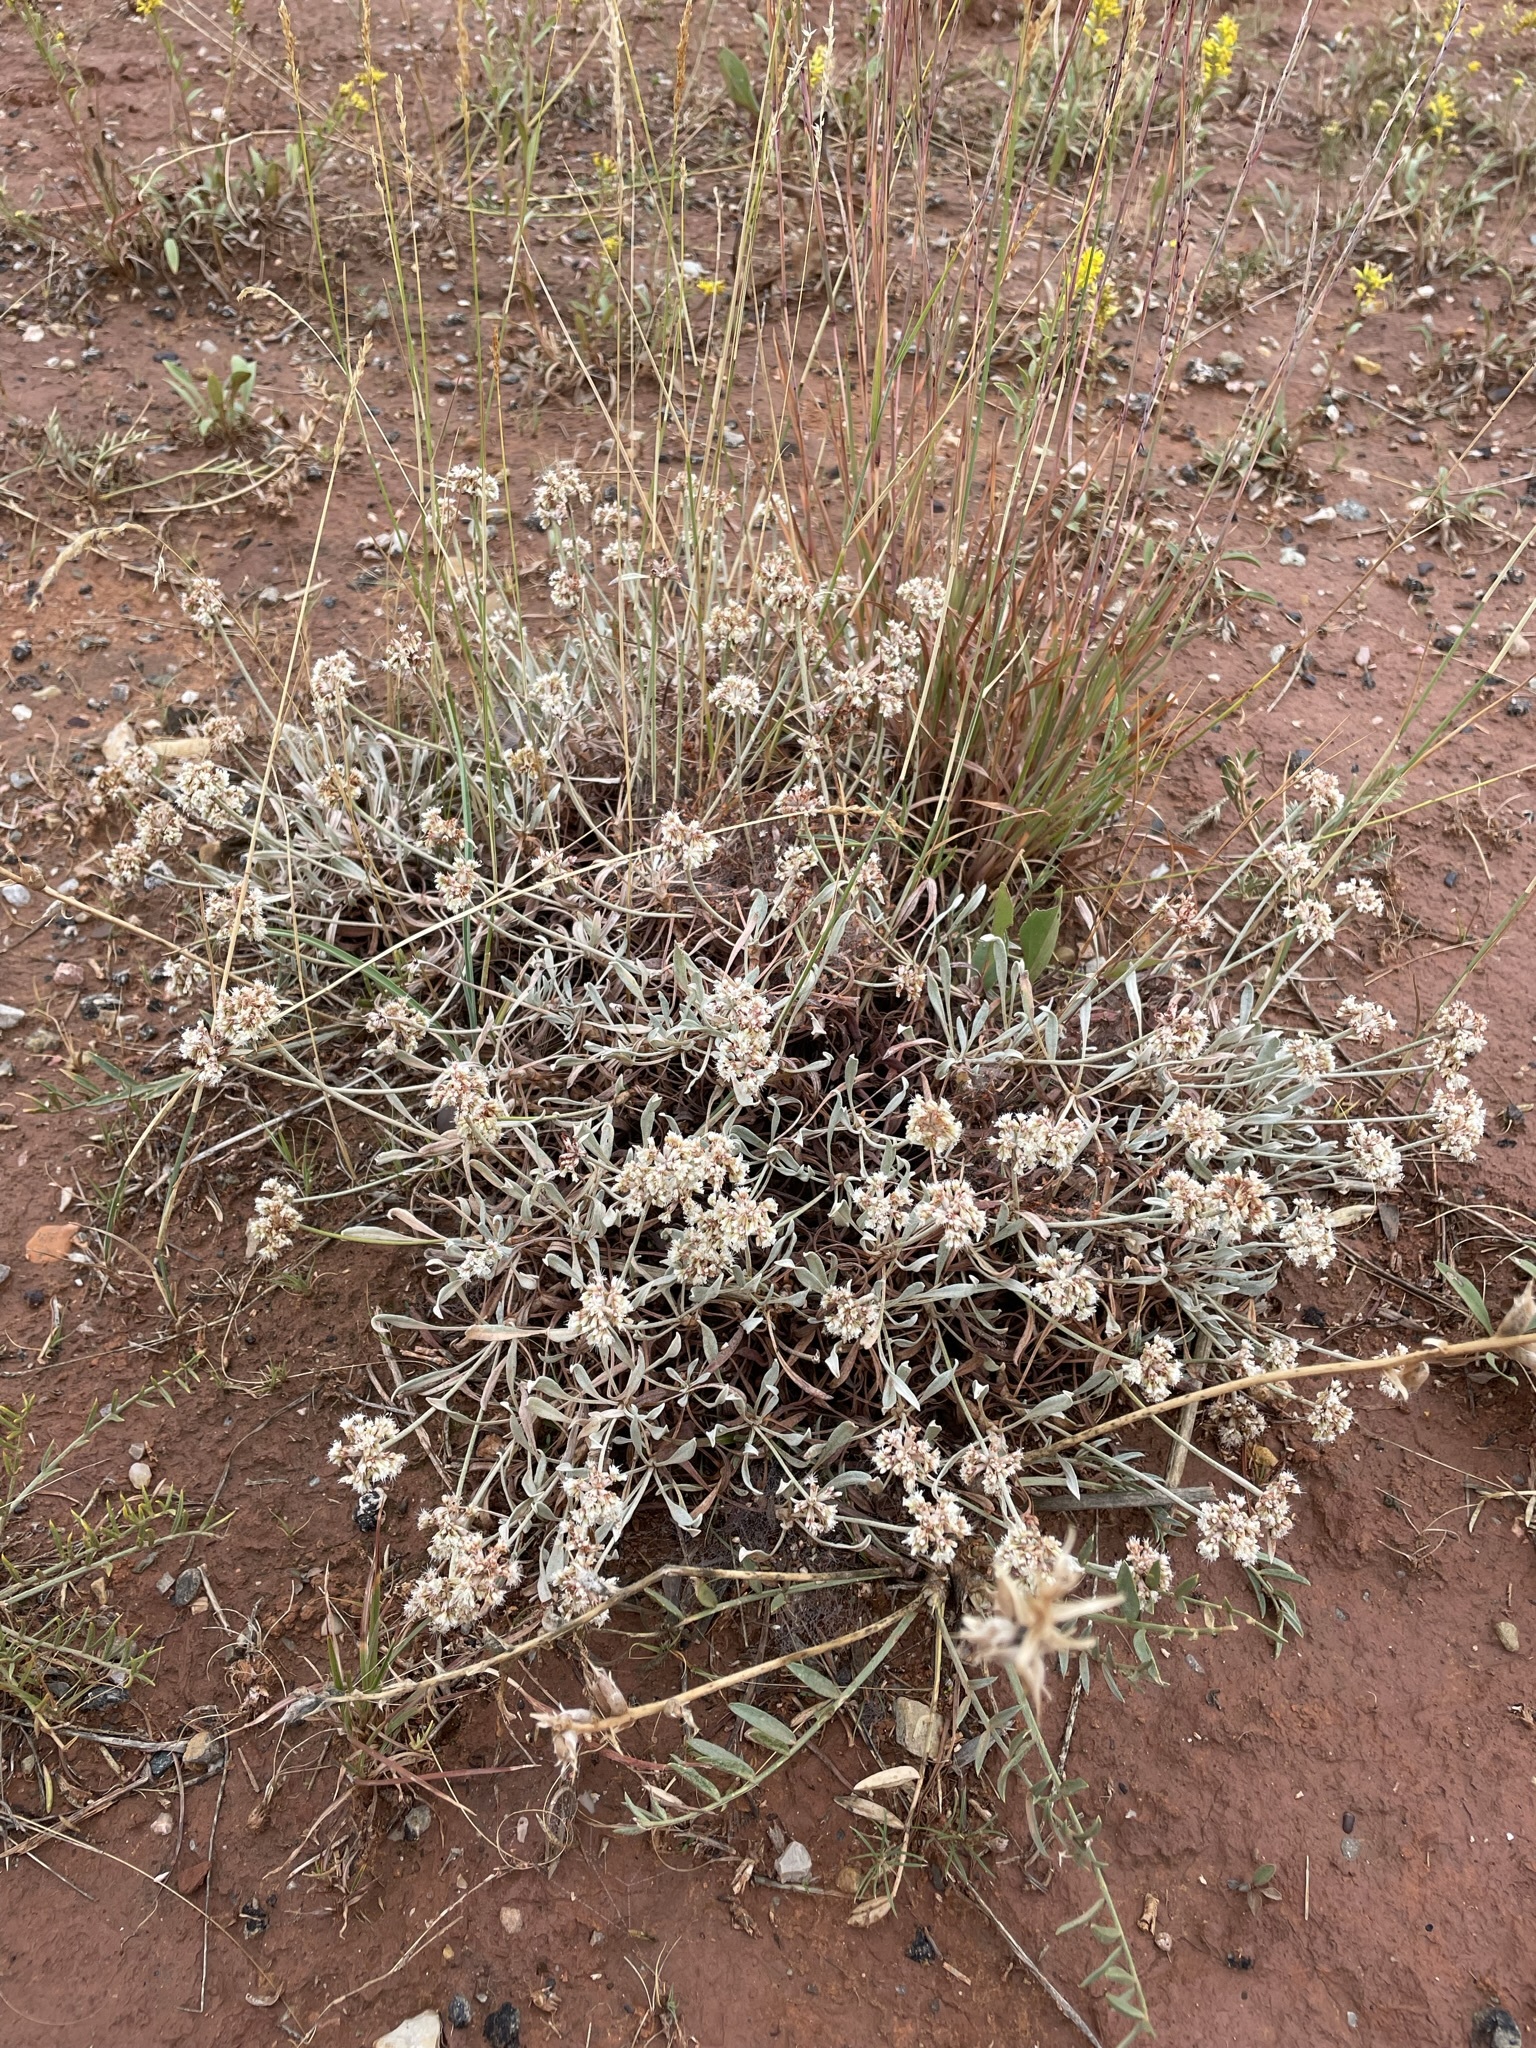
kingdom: Plantae
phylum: Tracheophyta
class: Magnoliopsida
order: Caryophyllales
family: Polygonaceae
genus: Eriogonum
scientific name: Eriogonum pauciflorum
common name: Few-flower wild buckwheat
